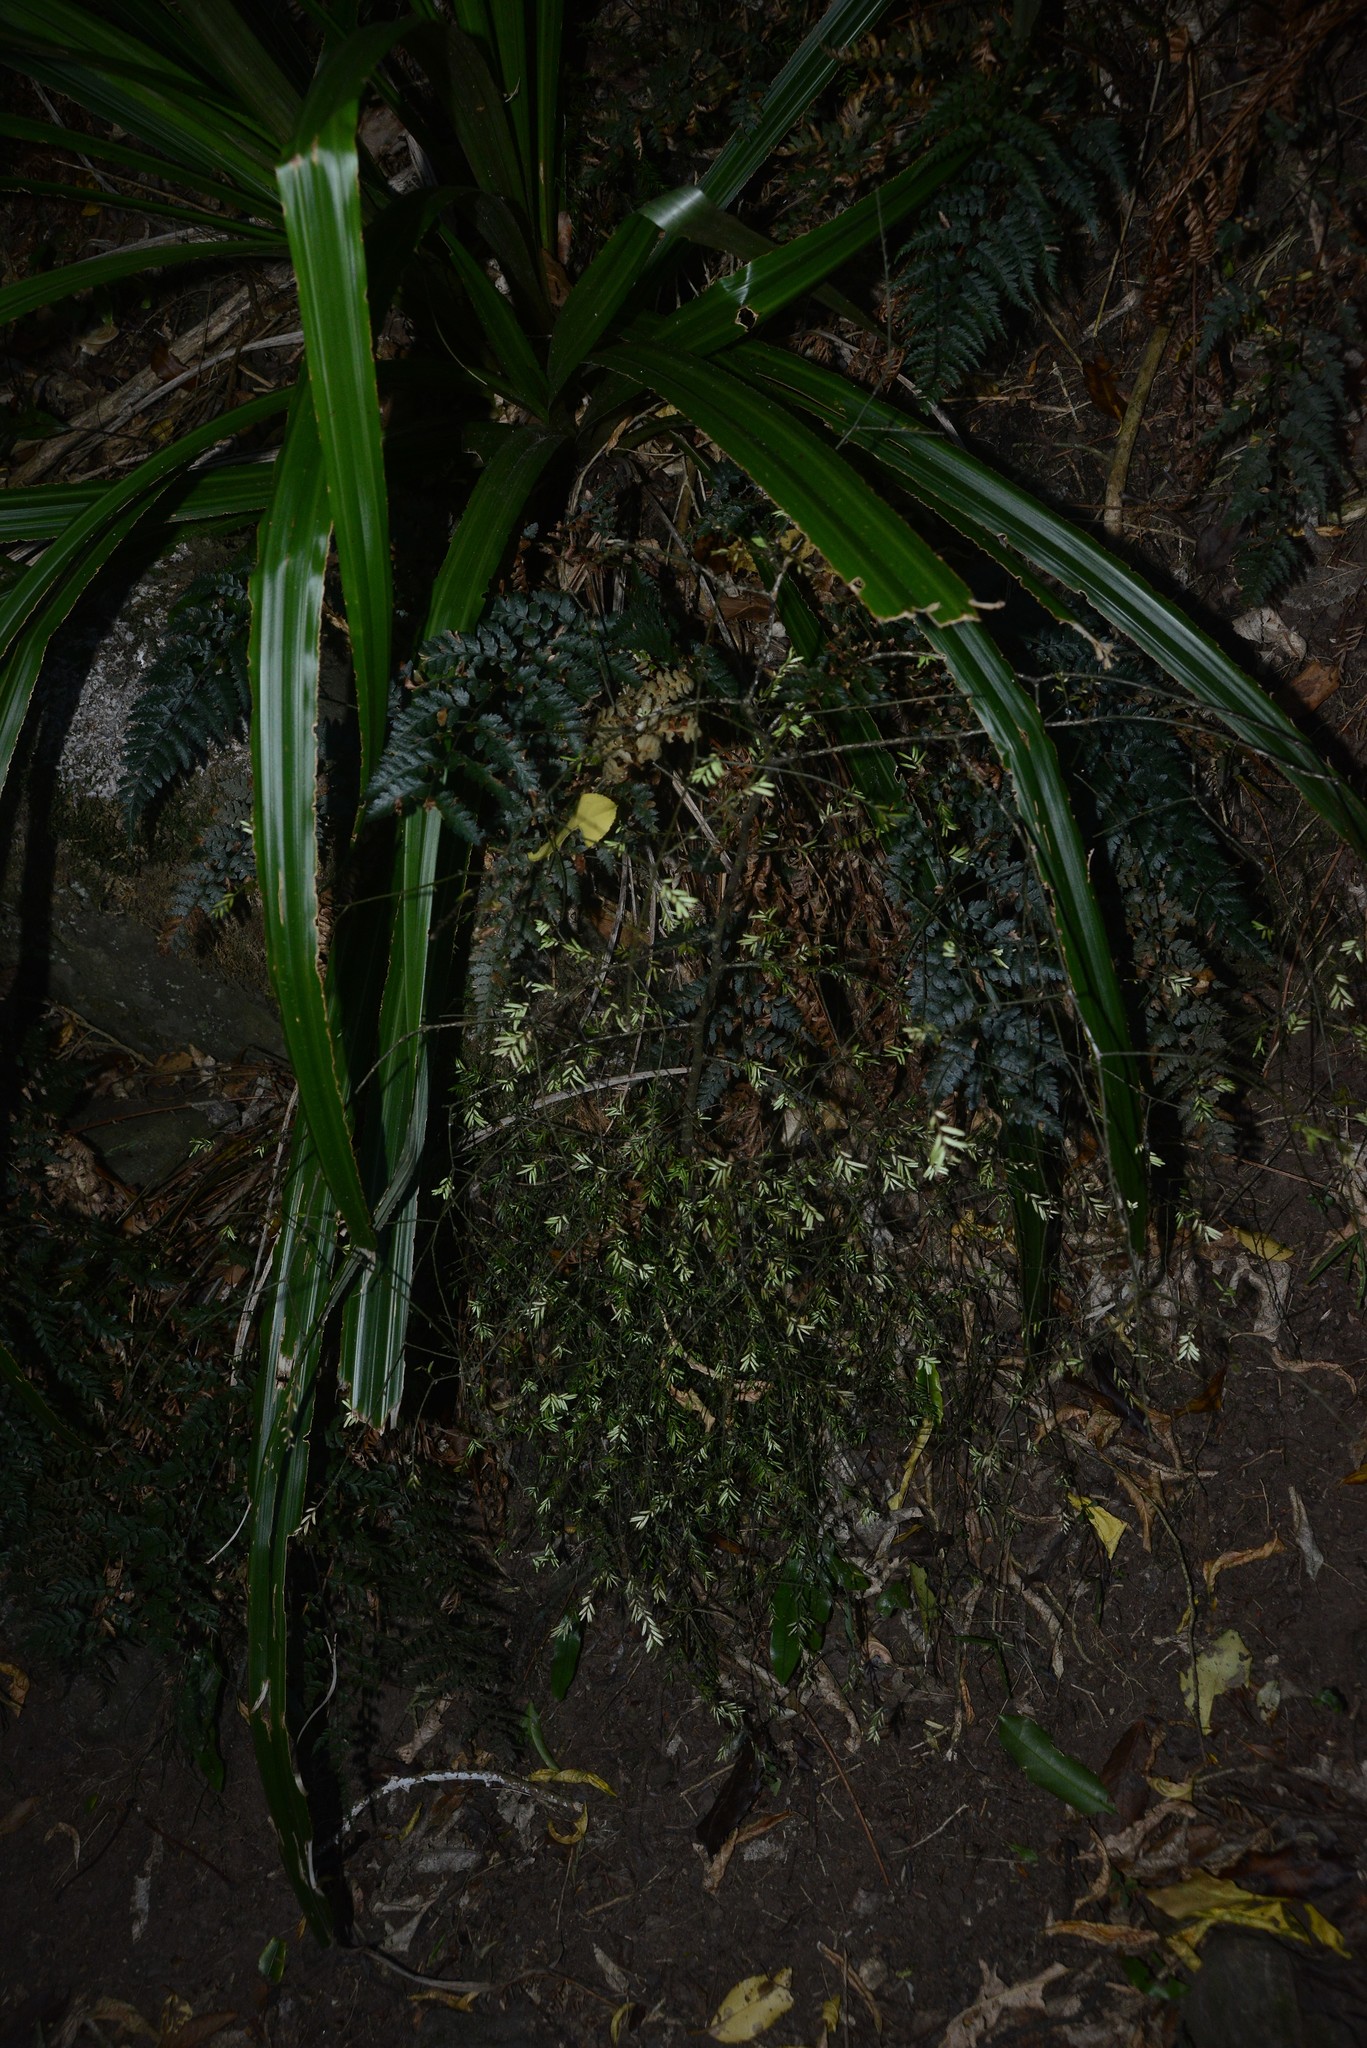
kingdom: Plantae
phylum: Tracheophyta
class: Pinopsida
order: Pinales
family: Podocarpaceae
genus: Prumnopitys
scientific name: Prumnopitys taxifolia
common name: Matai
